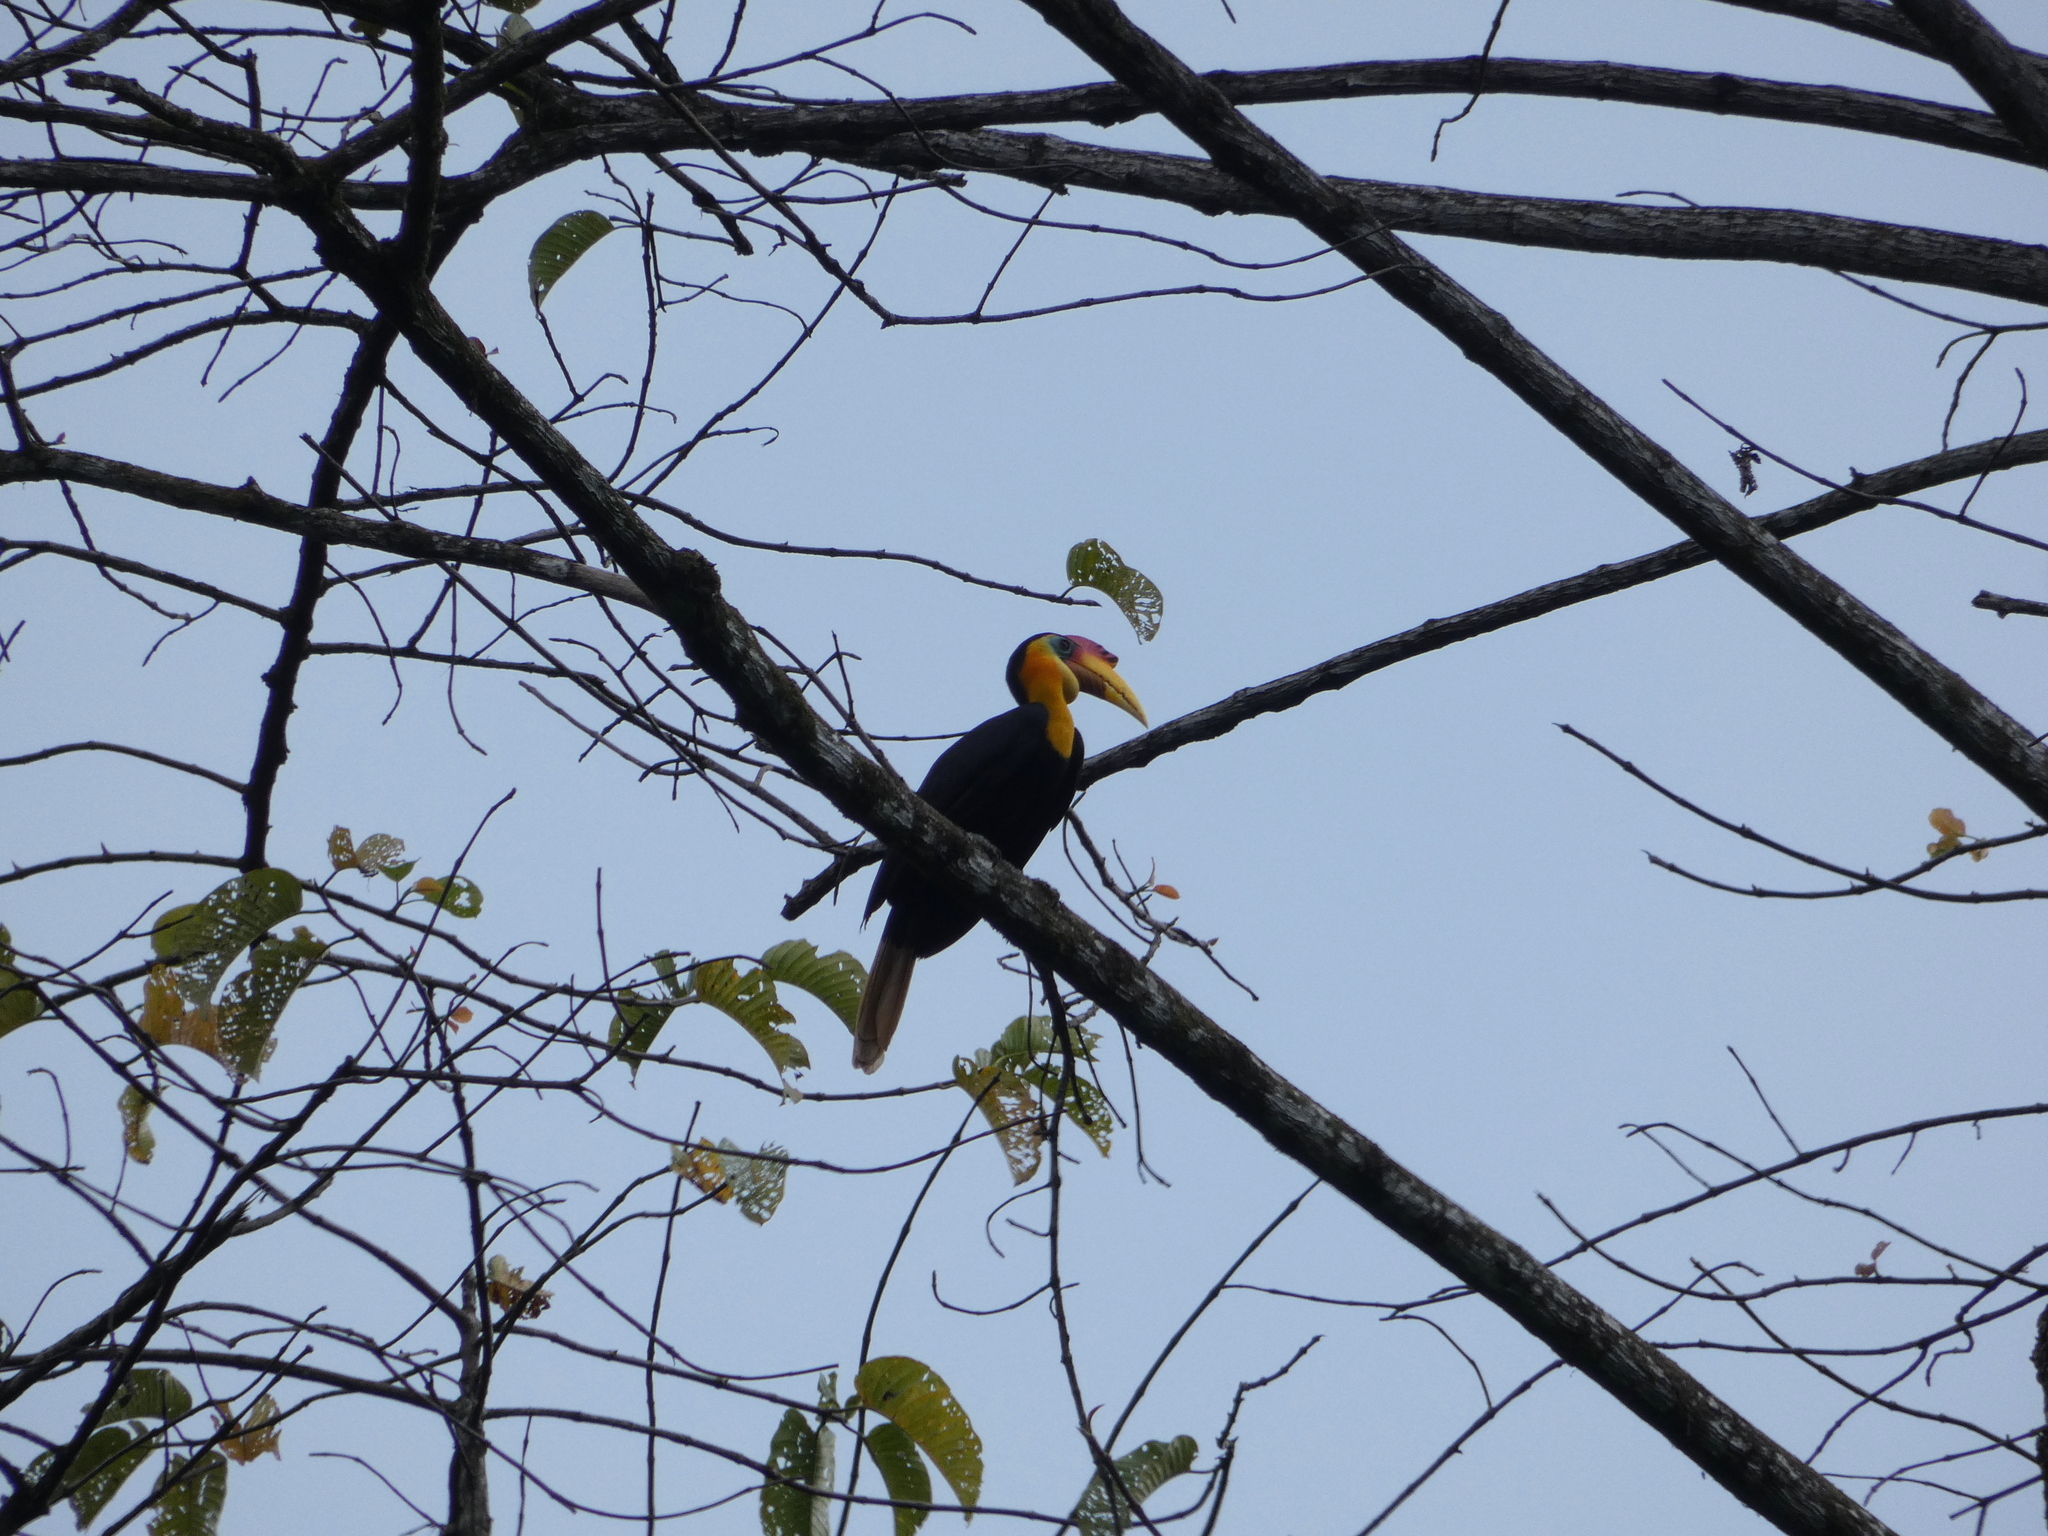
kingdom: Animalia
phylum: Chordata
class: Aves
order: Bucerotiformes
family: Bucerotidae
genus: Rhabdotorrhinus
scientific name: Rhabdotorrhinus corrugatus
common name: Wrinkled hornbill
